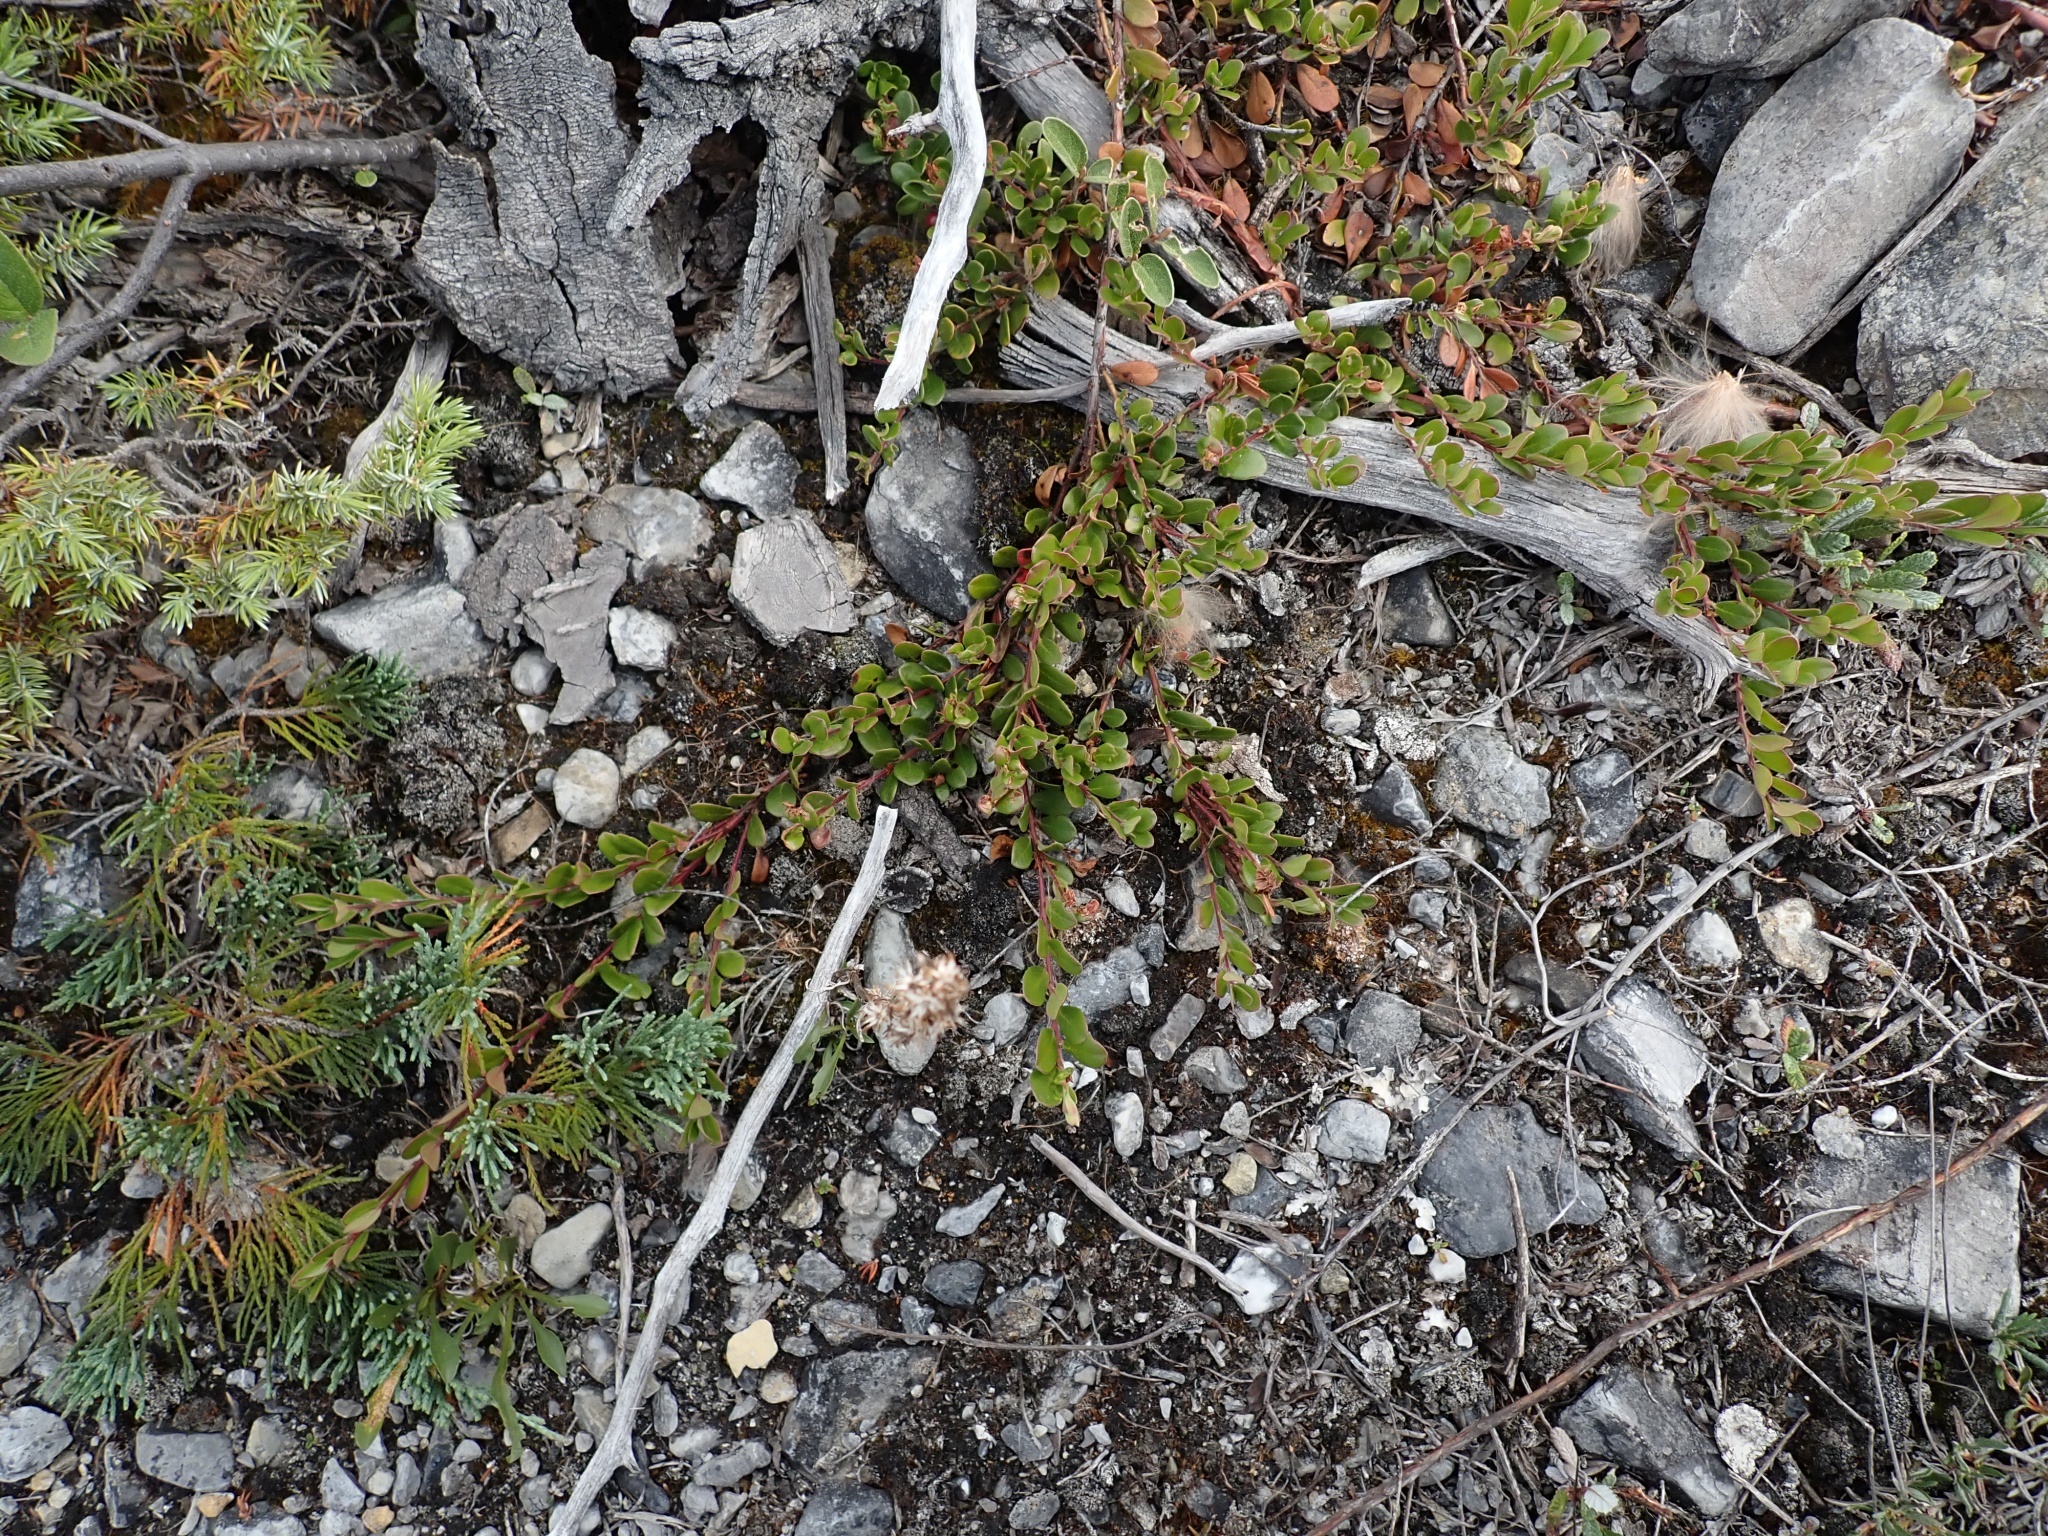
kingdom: Plantae
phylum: Tracheophyta
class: Magnoliopsida
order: Ericales
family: Ericaceae
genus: Arctostaphylos
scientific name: Arctostaphylos uva-ursi
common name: Bearberry
